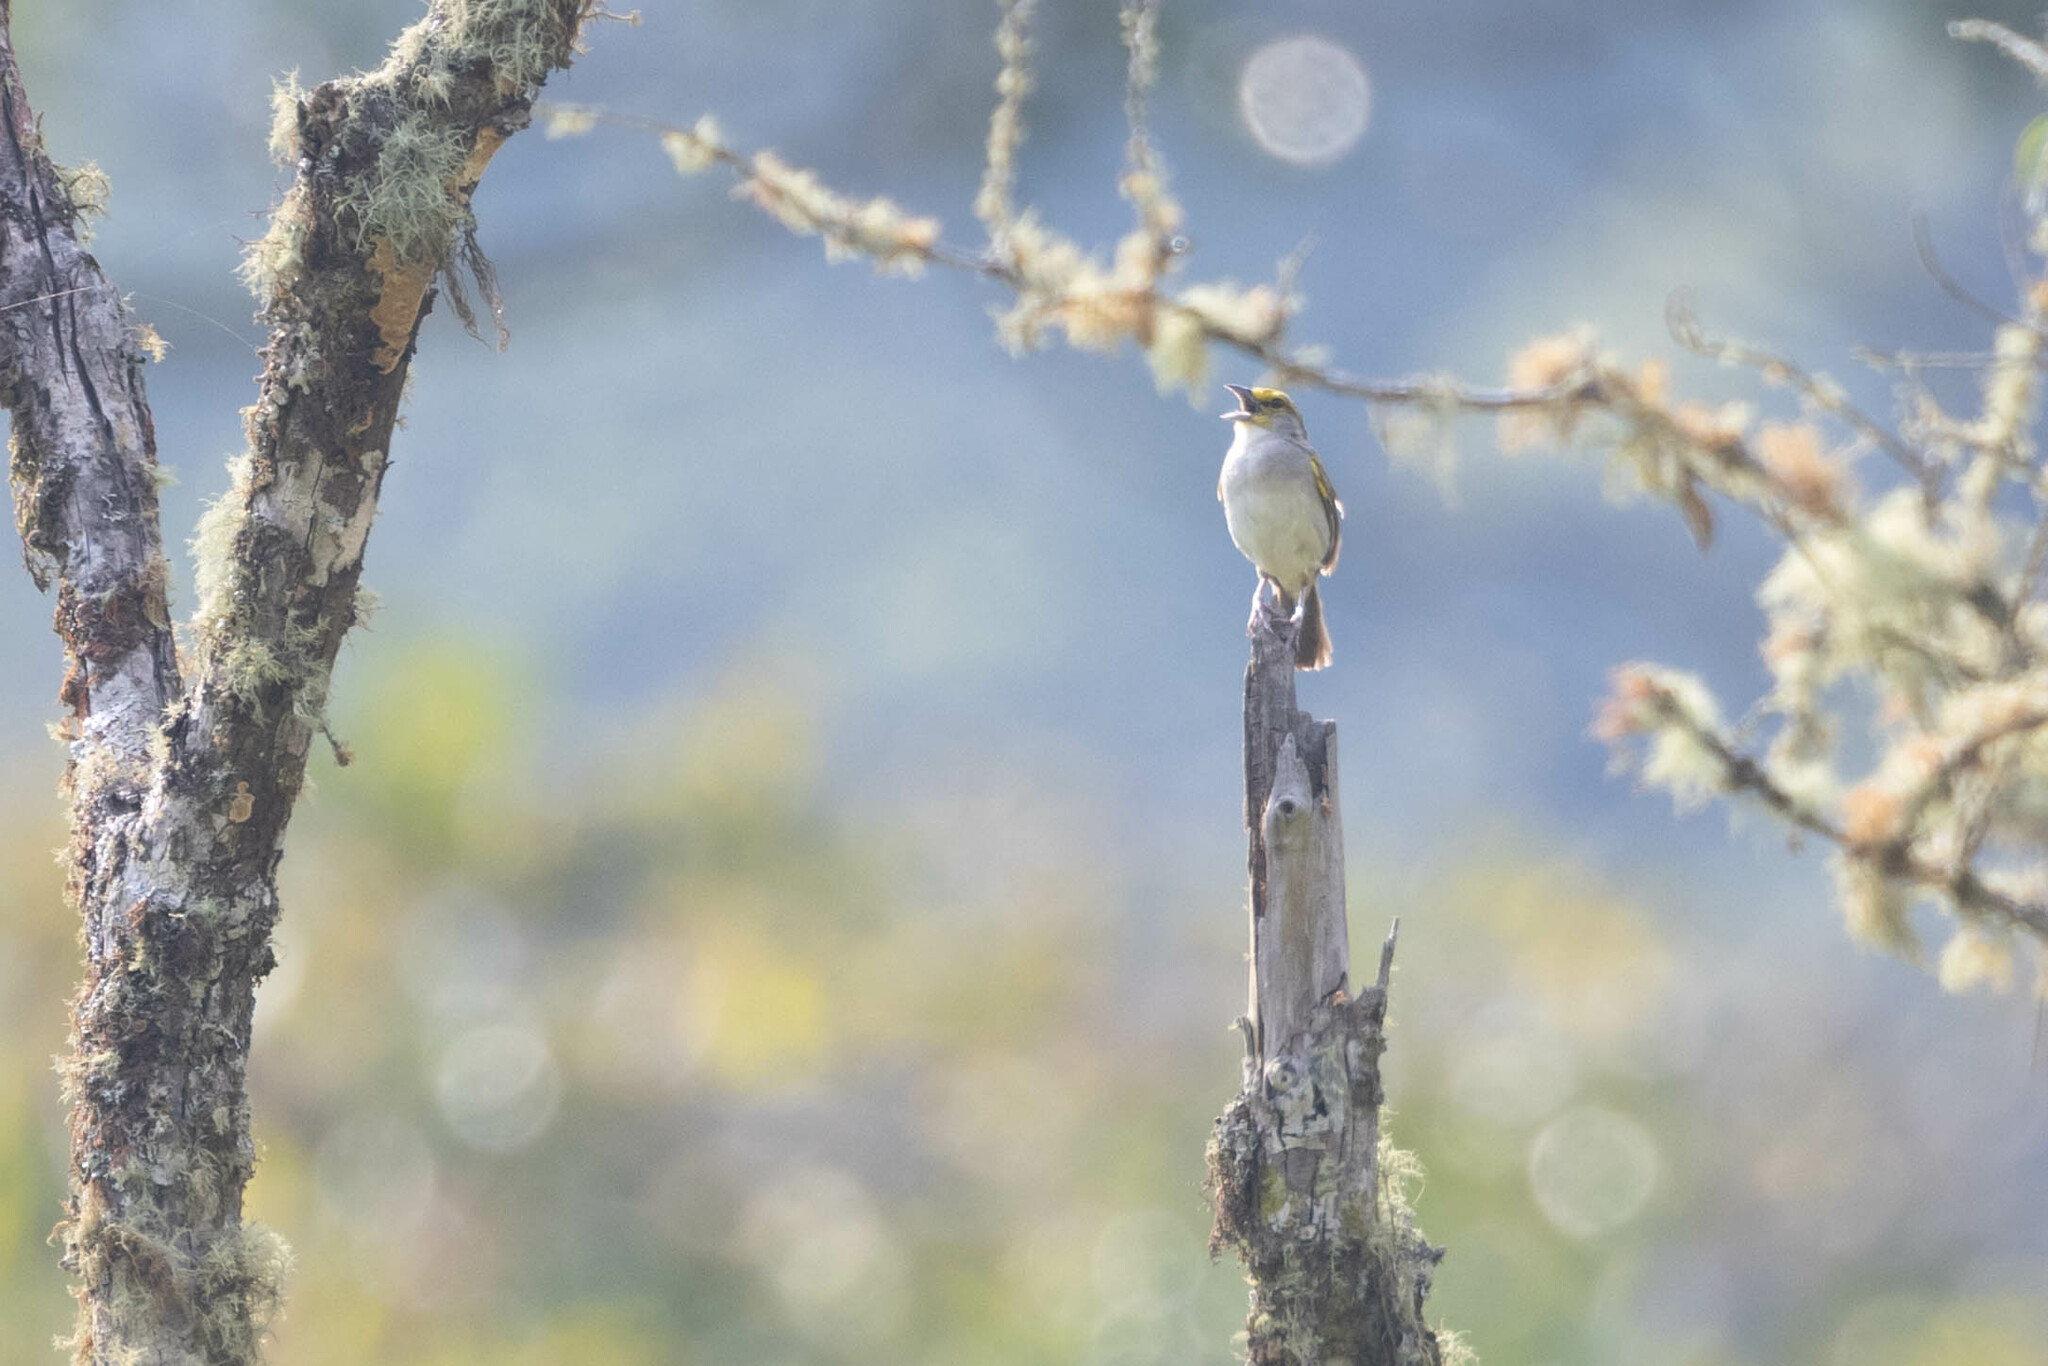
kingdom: Animalia
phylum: Chordata
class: Aves
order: Passeriformes
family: Passerellidae
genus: Ammodramus
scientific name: Ammodramus aurifrons
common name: Yellow-browed sparrow
